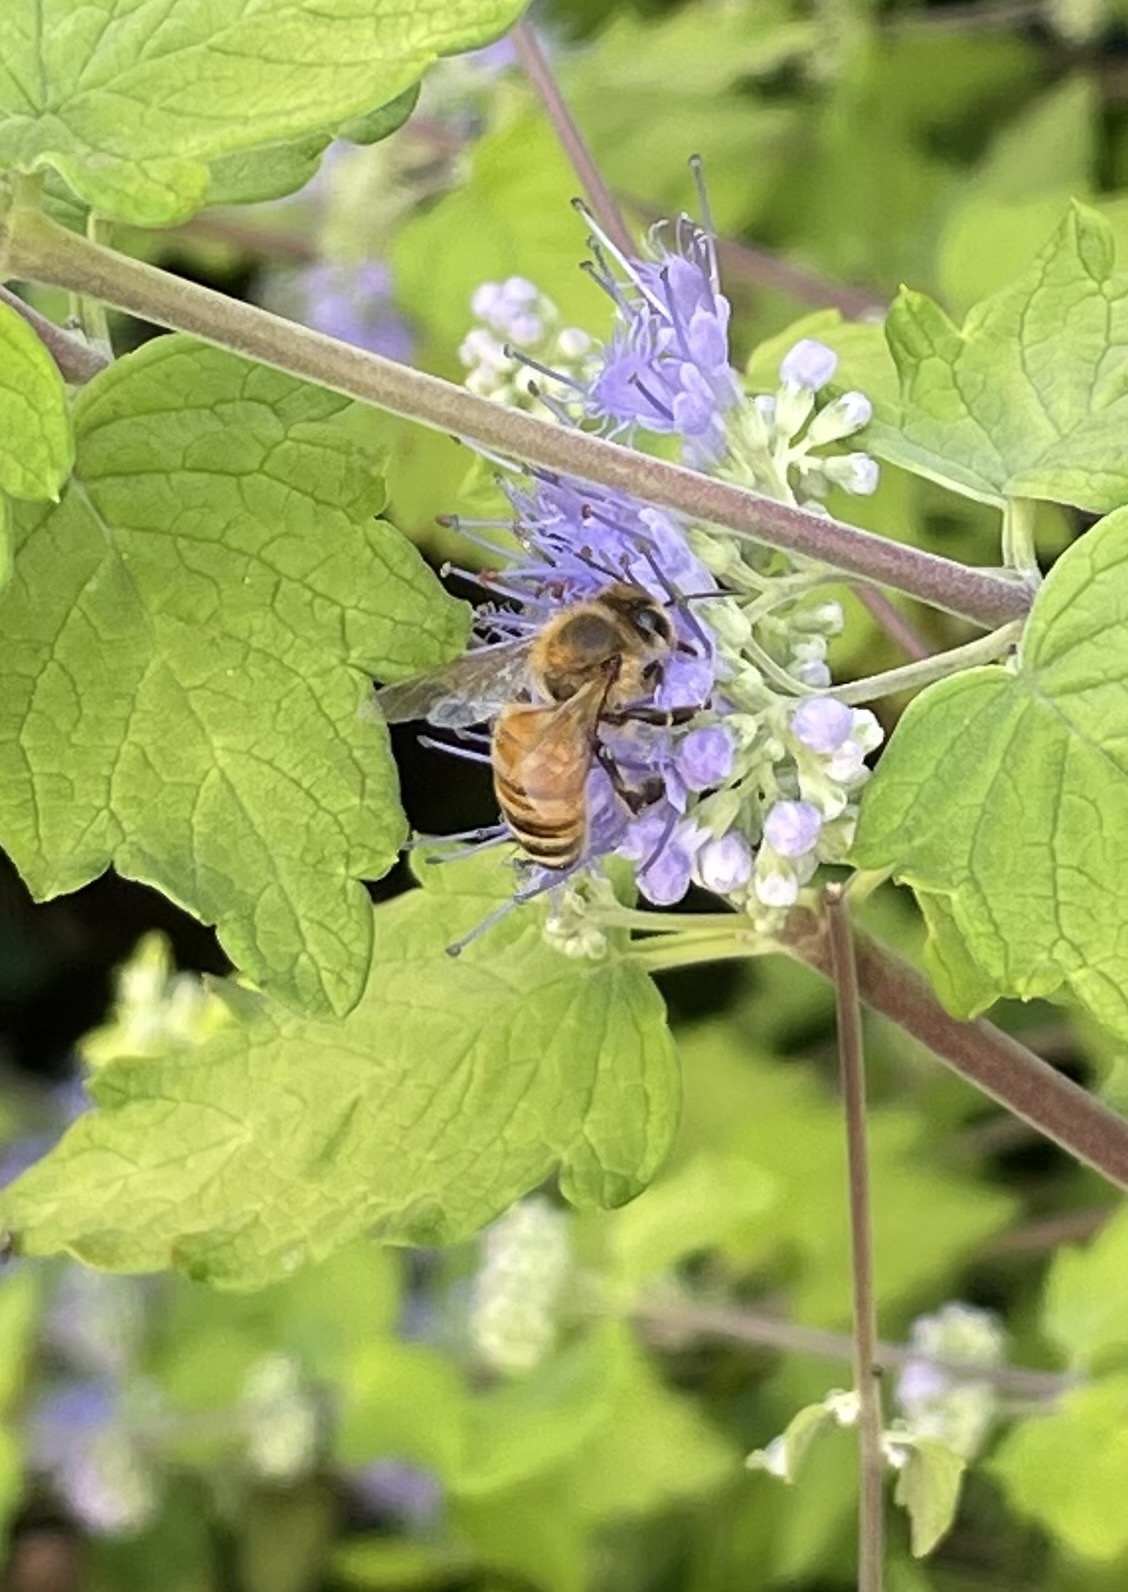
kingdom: Animalia
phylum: Arthropoda
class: Insecta
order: Hymenoptera
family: Apidae
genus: Apis
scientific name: Apis mellifera
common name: Honey bee
